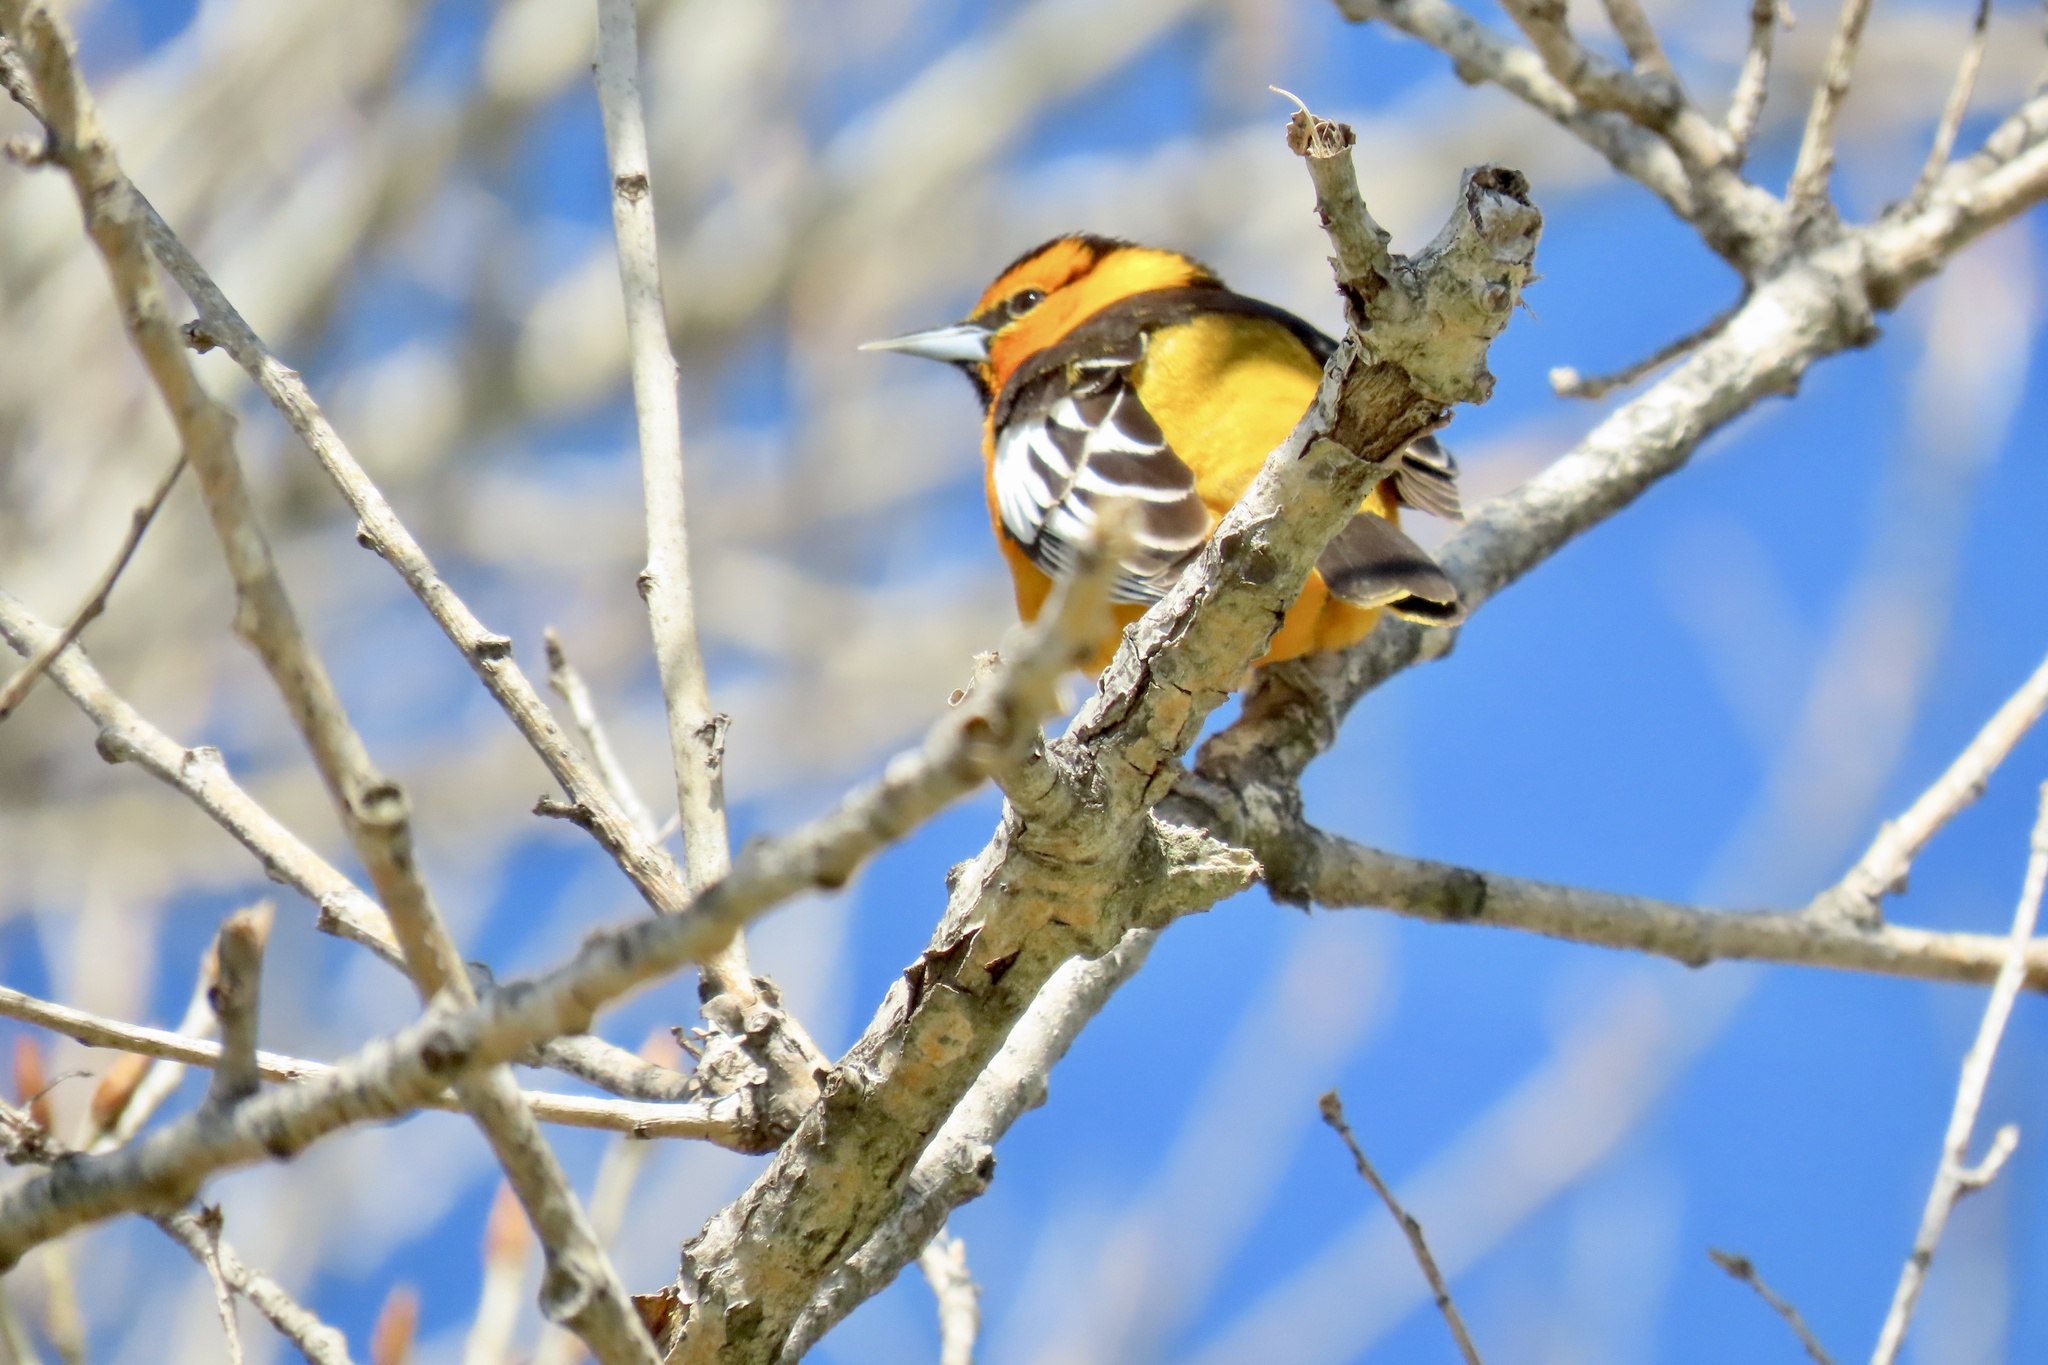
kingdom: Animalia
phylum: Chordata
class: Aves
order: Passeriformes
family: Icteridae
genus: Icterus
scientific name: Icterus bullockii
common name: Bullock's oriole
